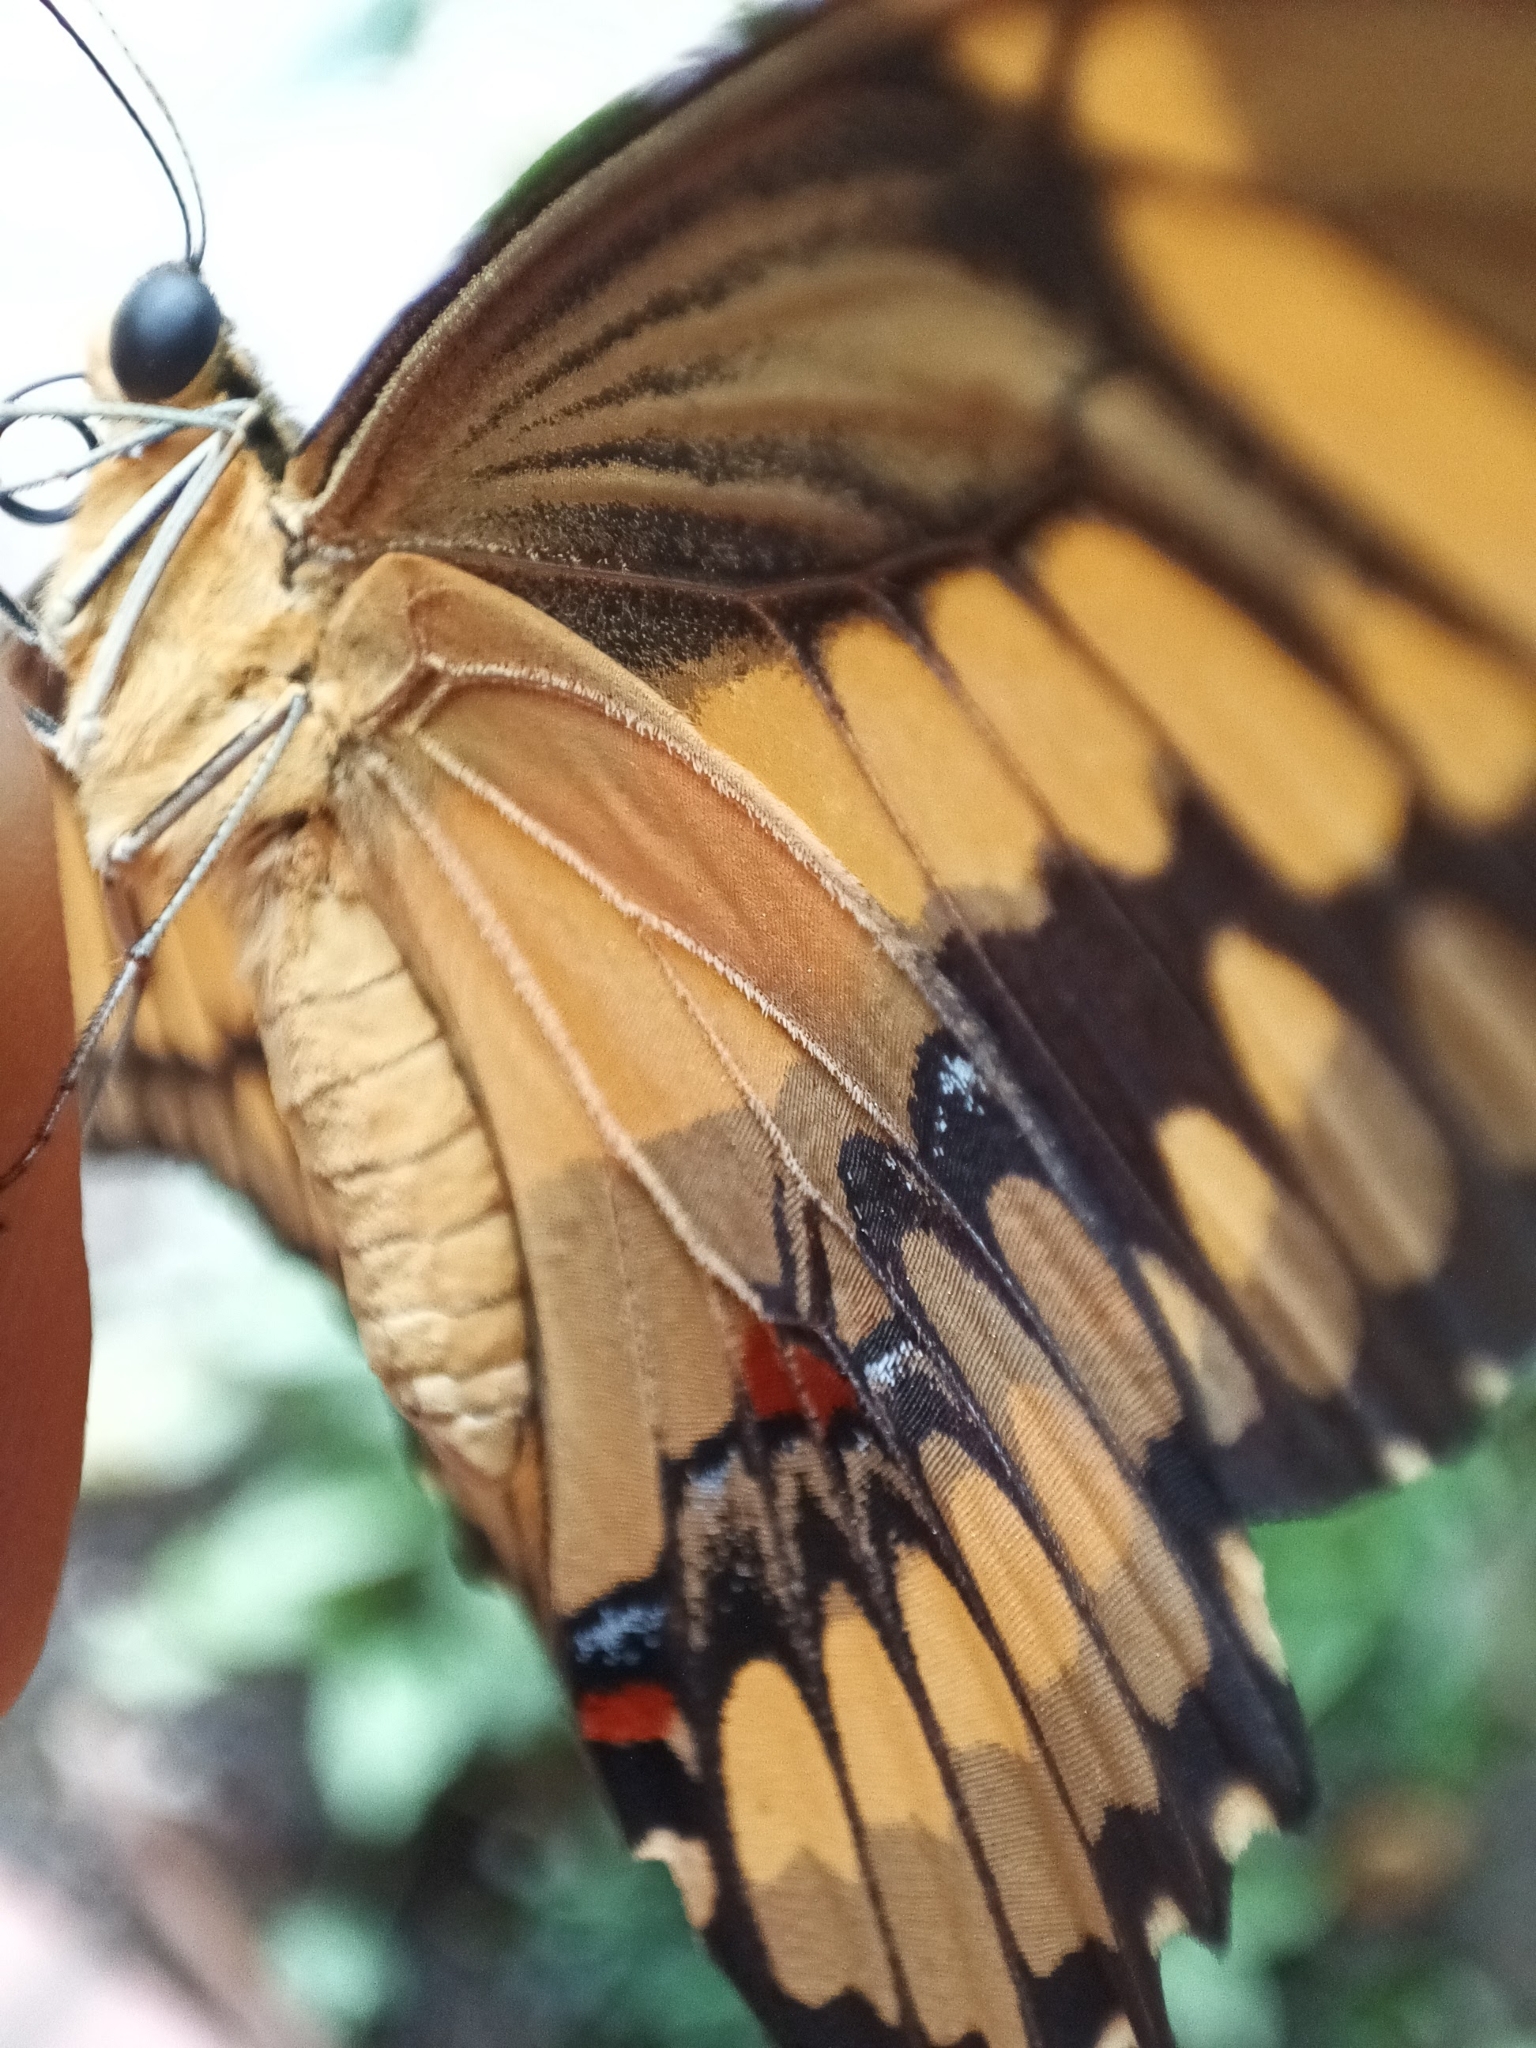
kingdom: Animalia
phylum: Arthropoda
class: Insecta
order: Lepidoptera
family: Papilionidae
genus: Heraclides
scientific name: Heraclides
